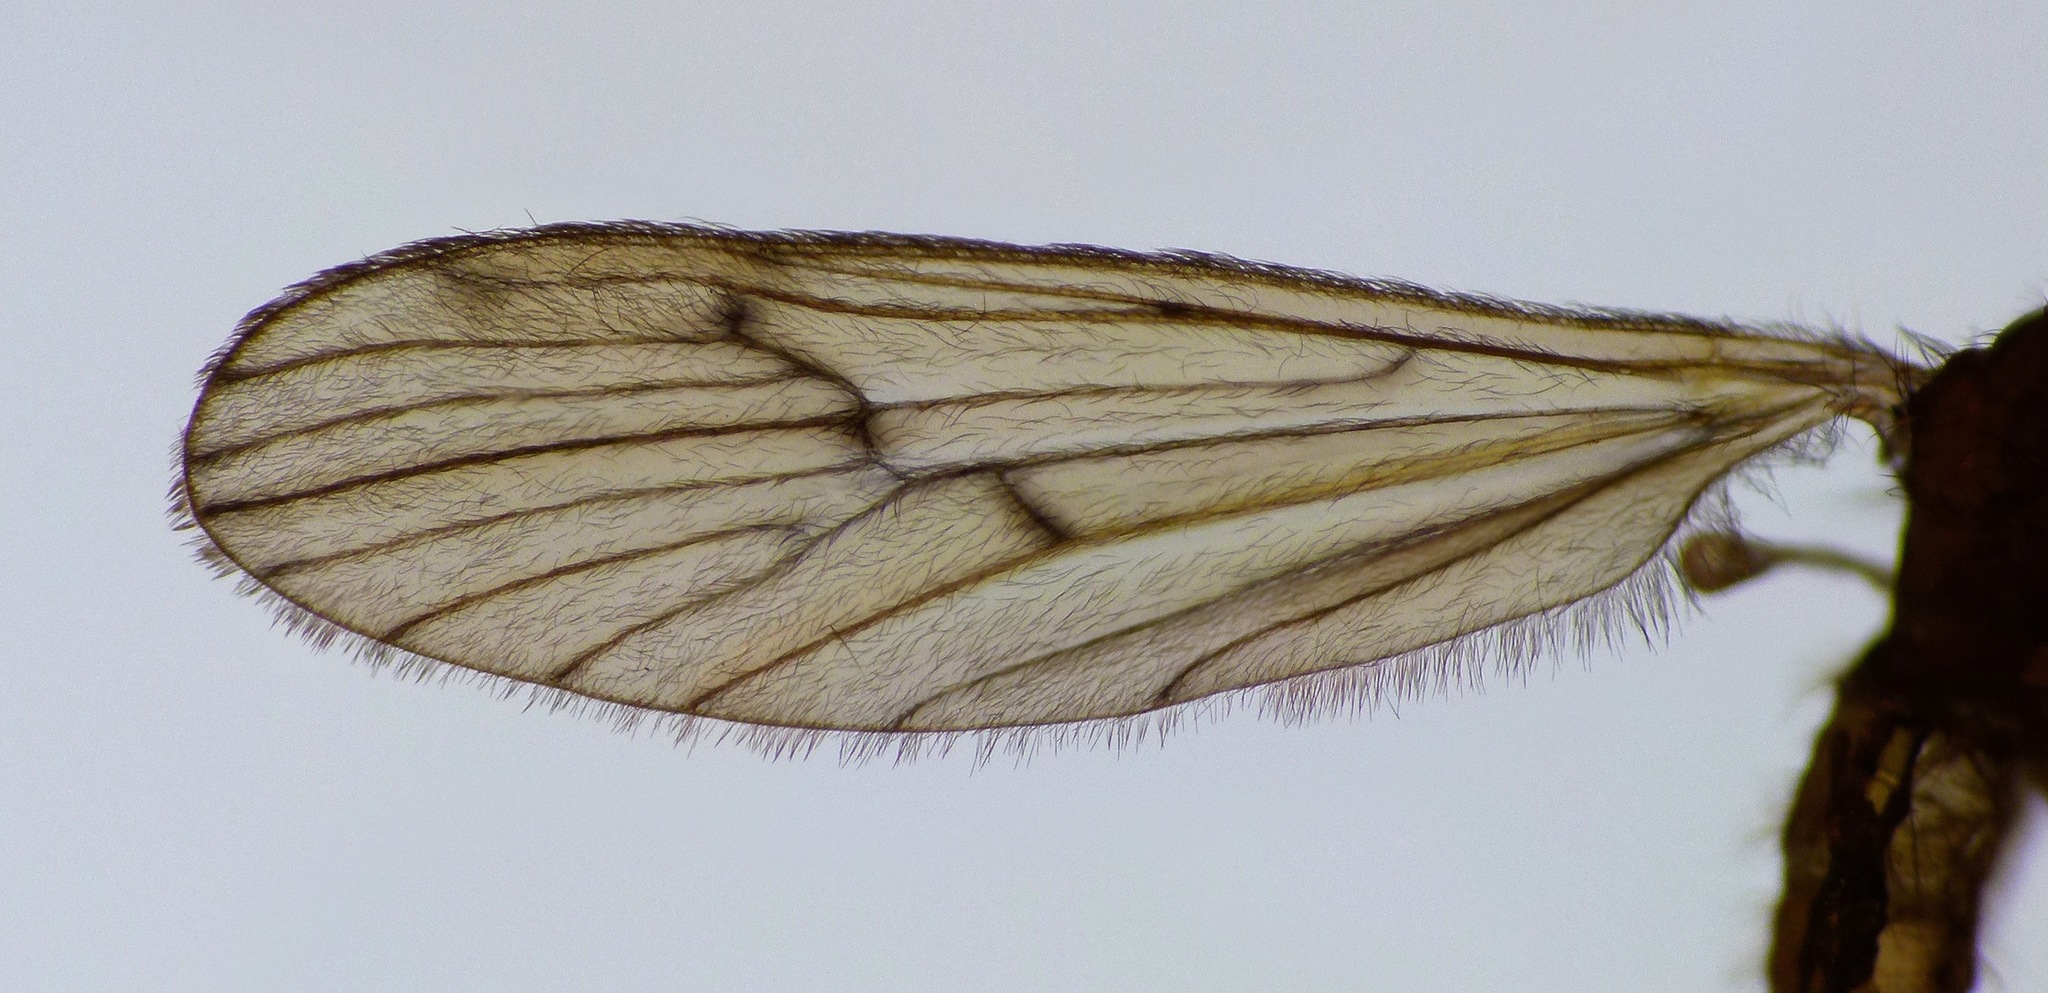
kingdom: Animalia
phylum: Arthropoda
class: Insecta
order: Diptera
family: Limoniidae
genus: Amphineurus
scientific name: Amphineurus insulsus
